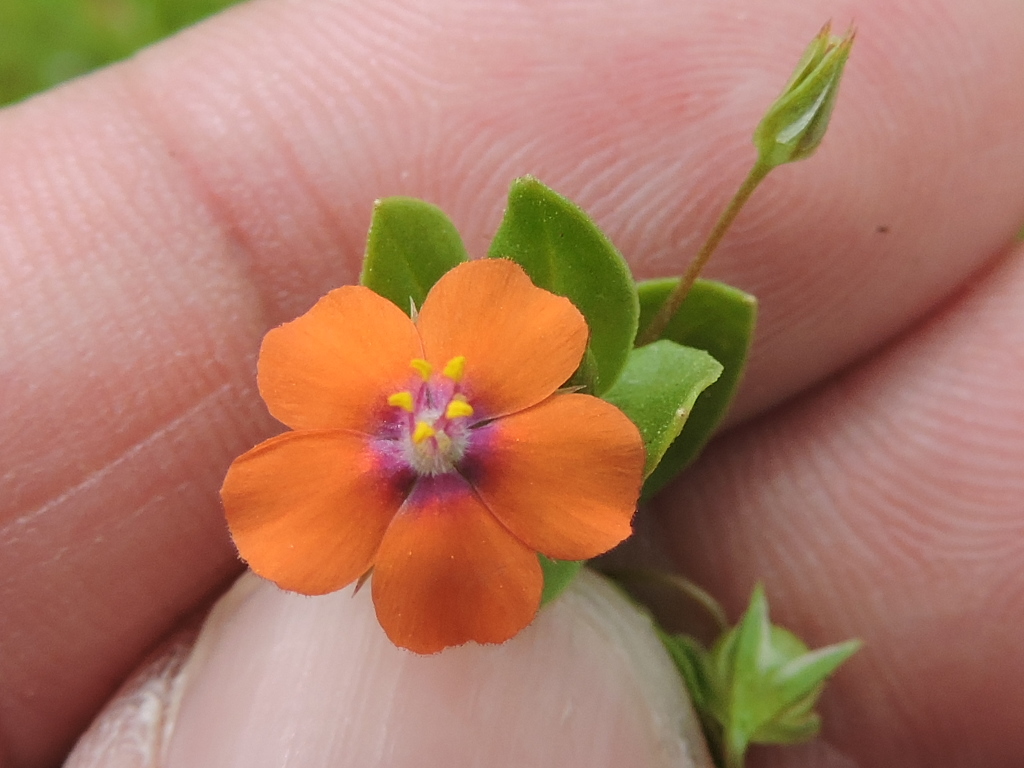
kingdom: Plantae
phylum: Tracheophyta
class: Magnoliopsida
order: Ericales
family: Primulaceae
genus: Lysimachia
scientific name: Lysimachia arvensis
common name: Scarlet pimpernel
